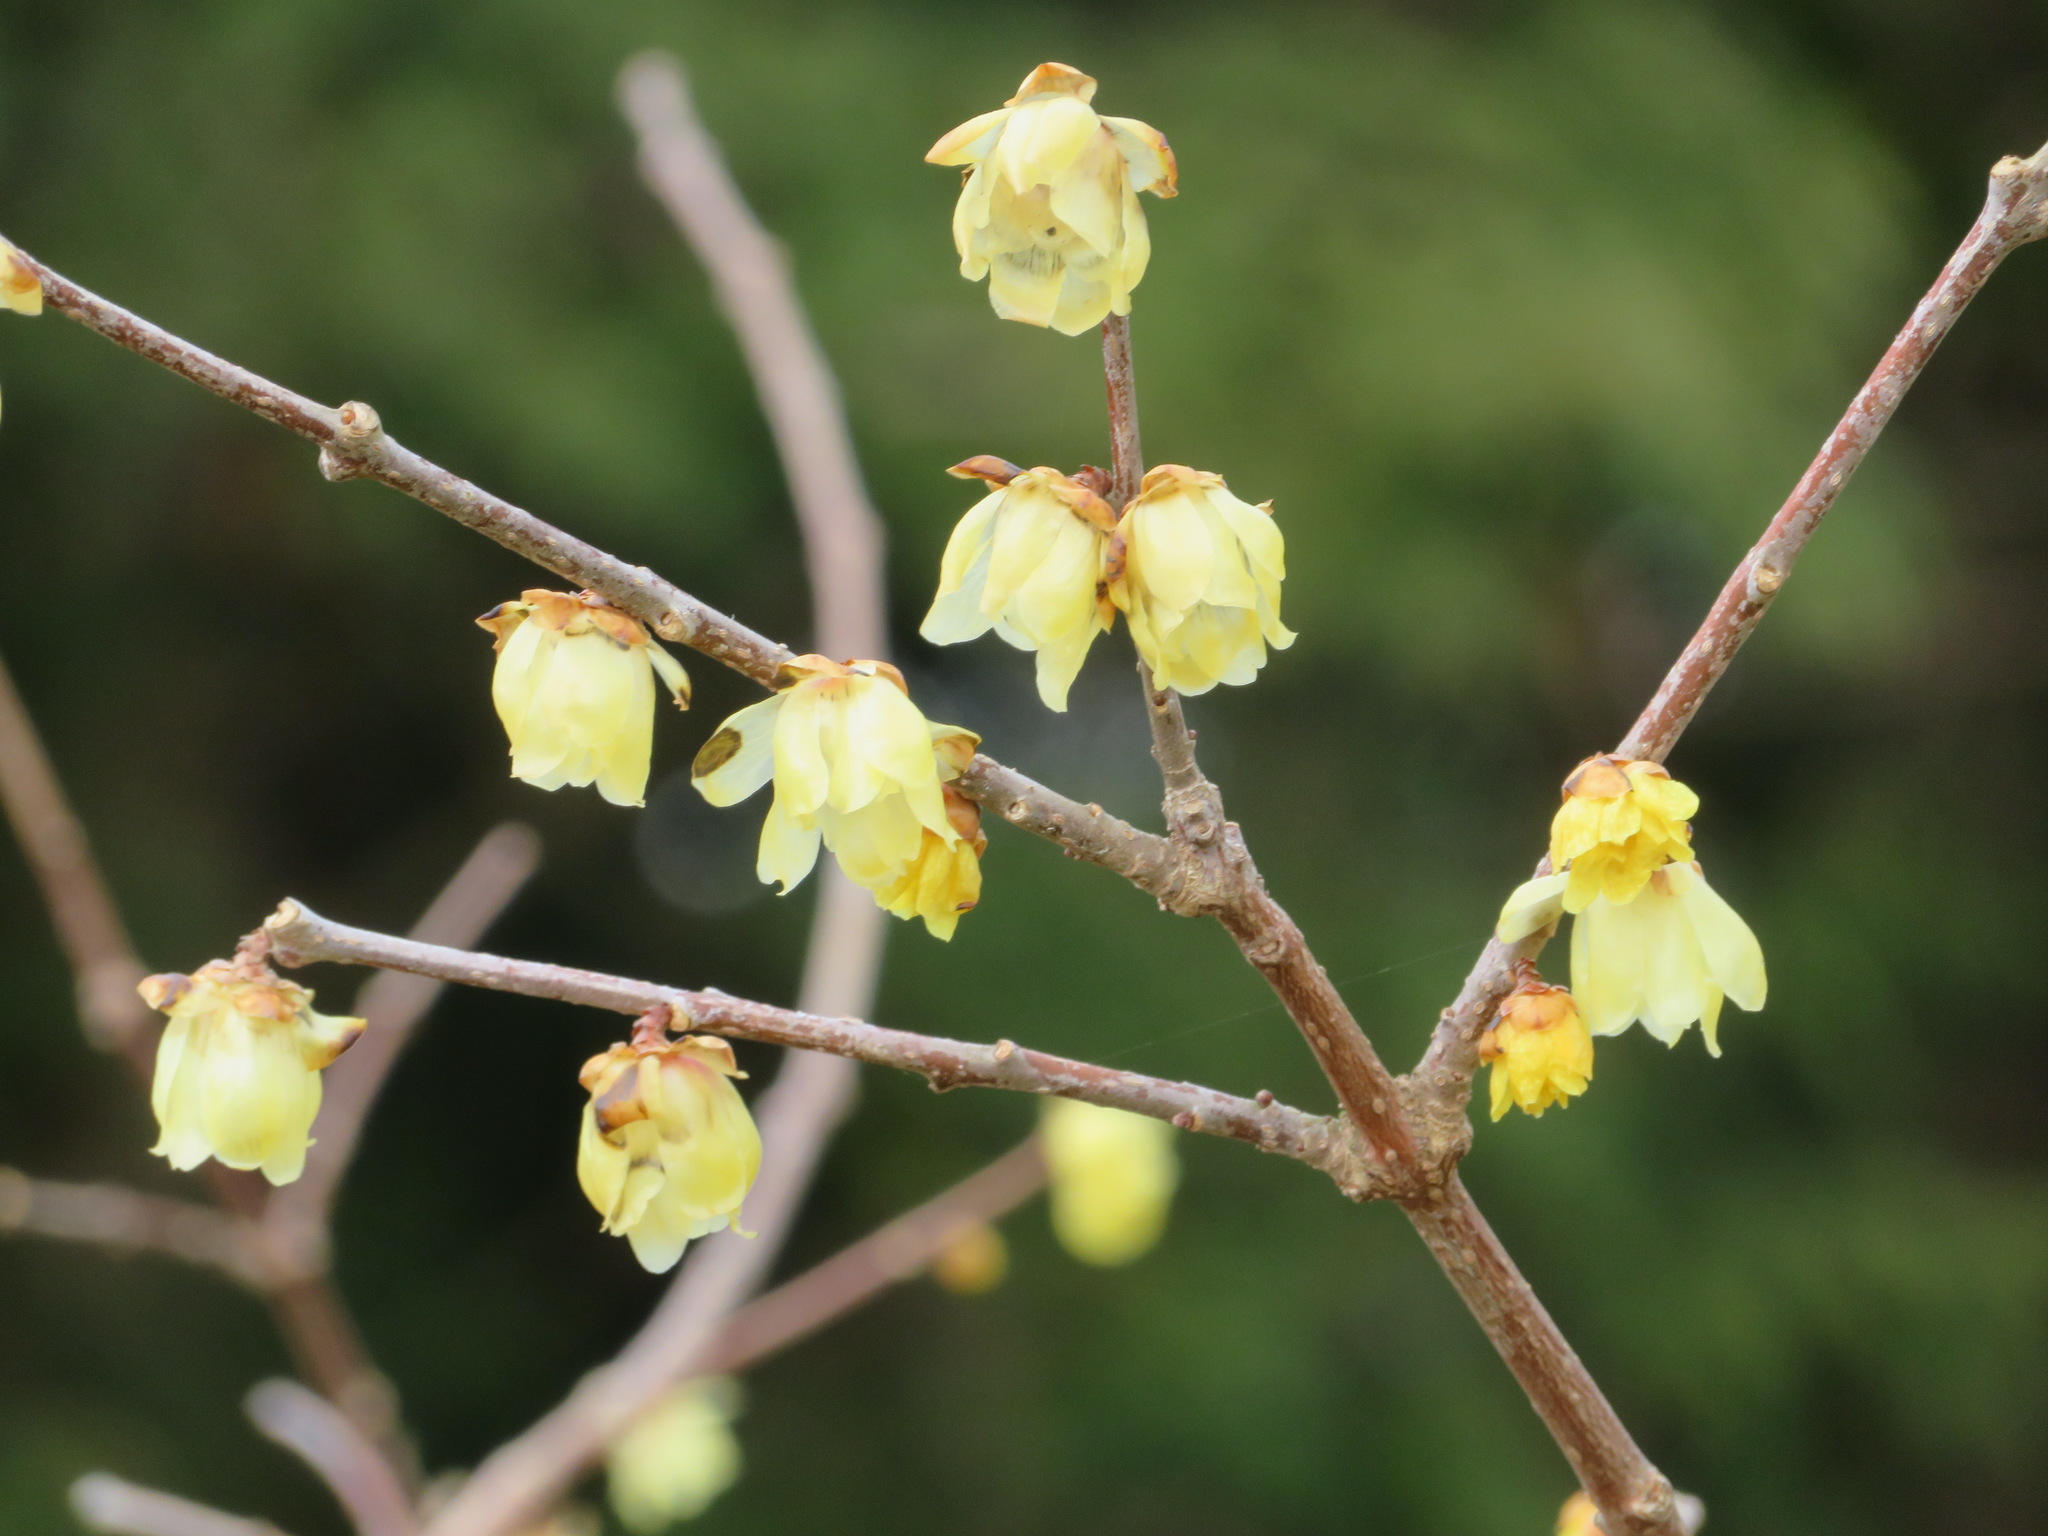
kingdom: Plantae
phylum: Tracheophyta
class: Magnoliopsida
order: Laurales
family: Calycanthaceae
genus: Chimonanthus
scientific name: Chimonanthus praecox
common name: Wintersweet
